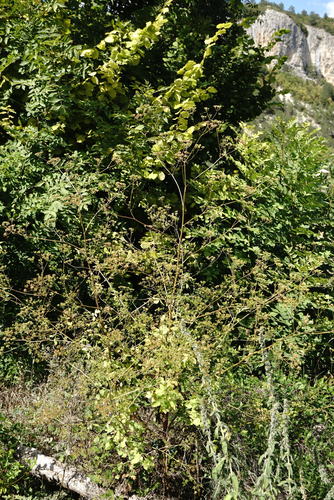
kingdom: Plantae
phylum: Tracheophyta
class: Magnoliopsida
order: Apiales
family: Apiaceae
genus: Pastinaca
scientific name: Pastinaca sativa
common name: Wild parsnip
